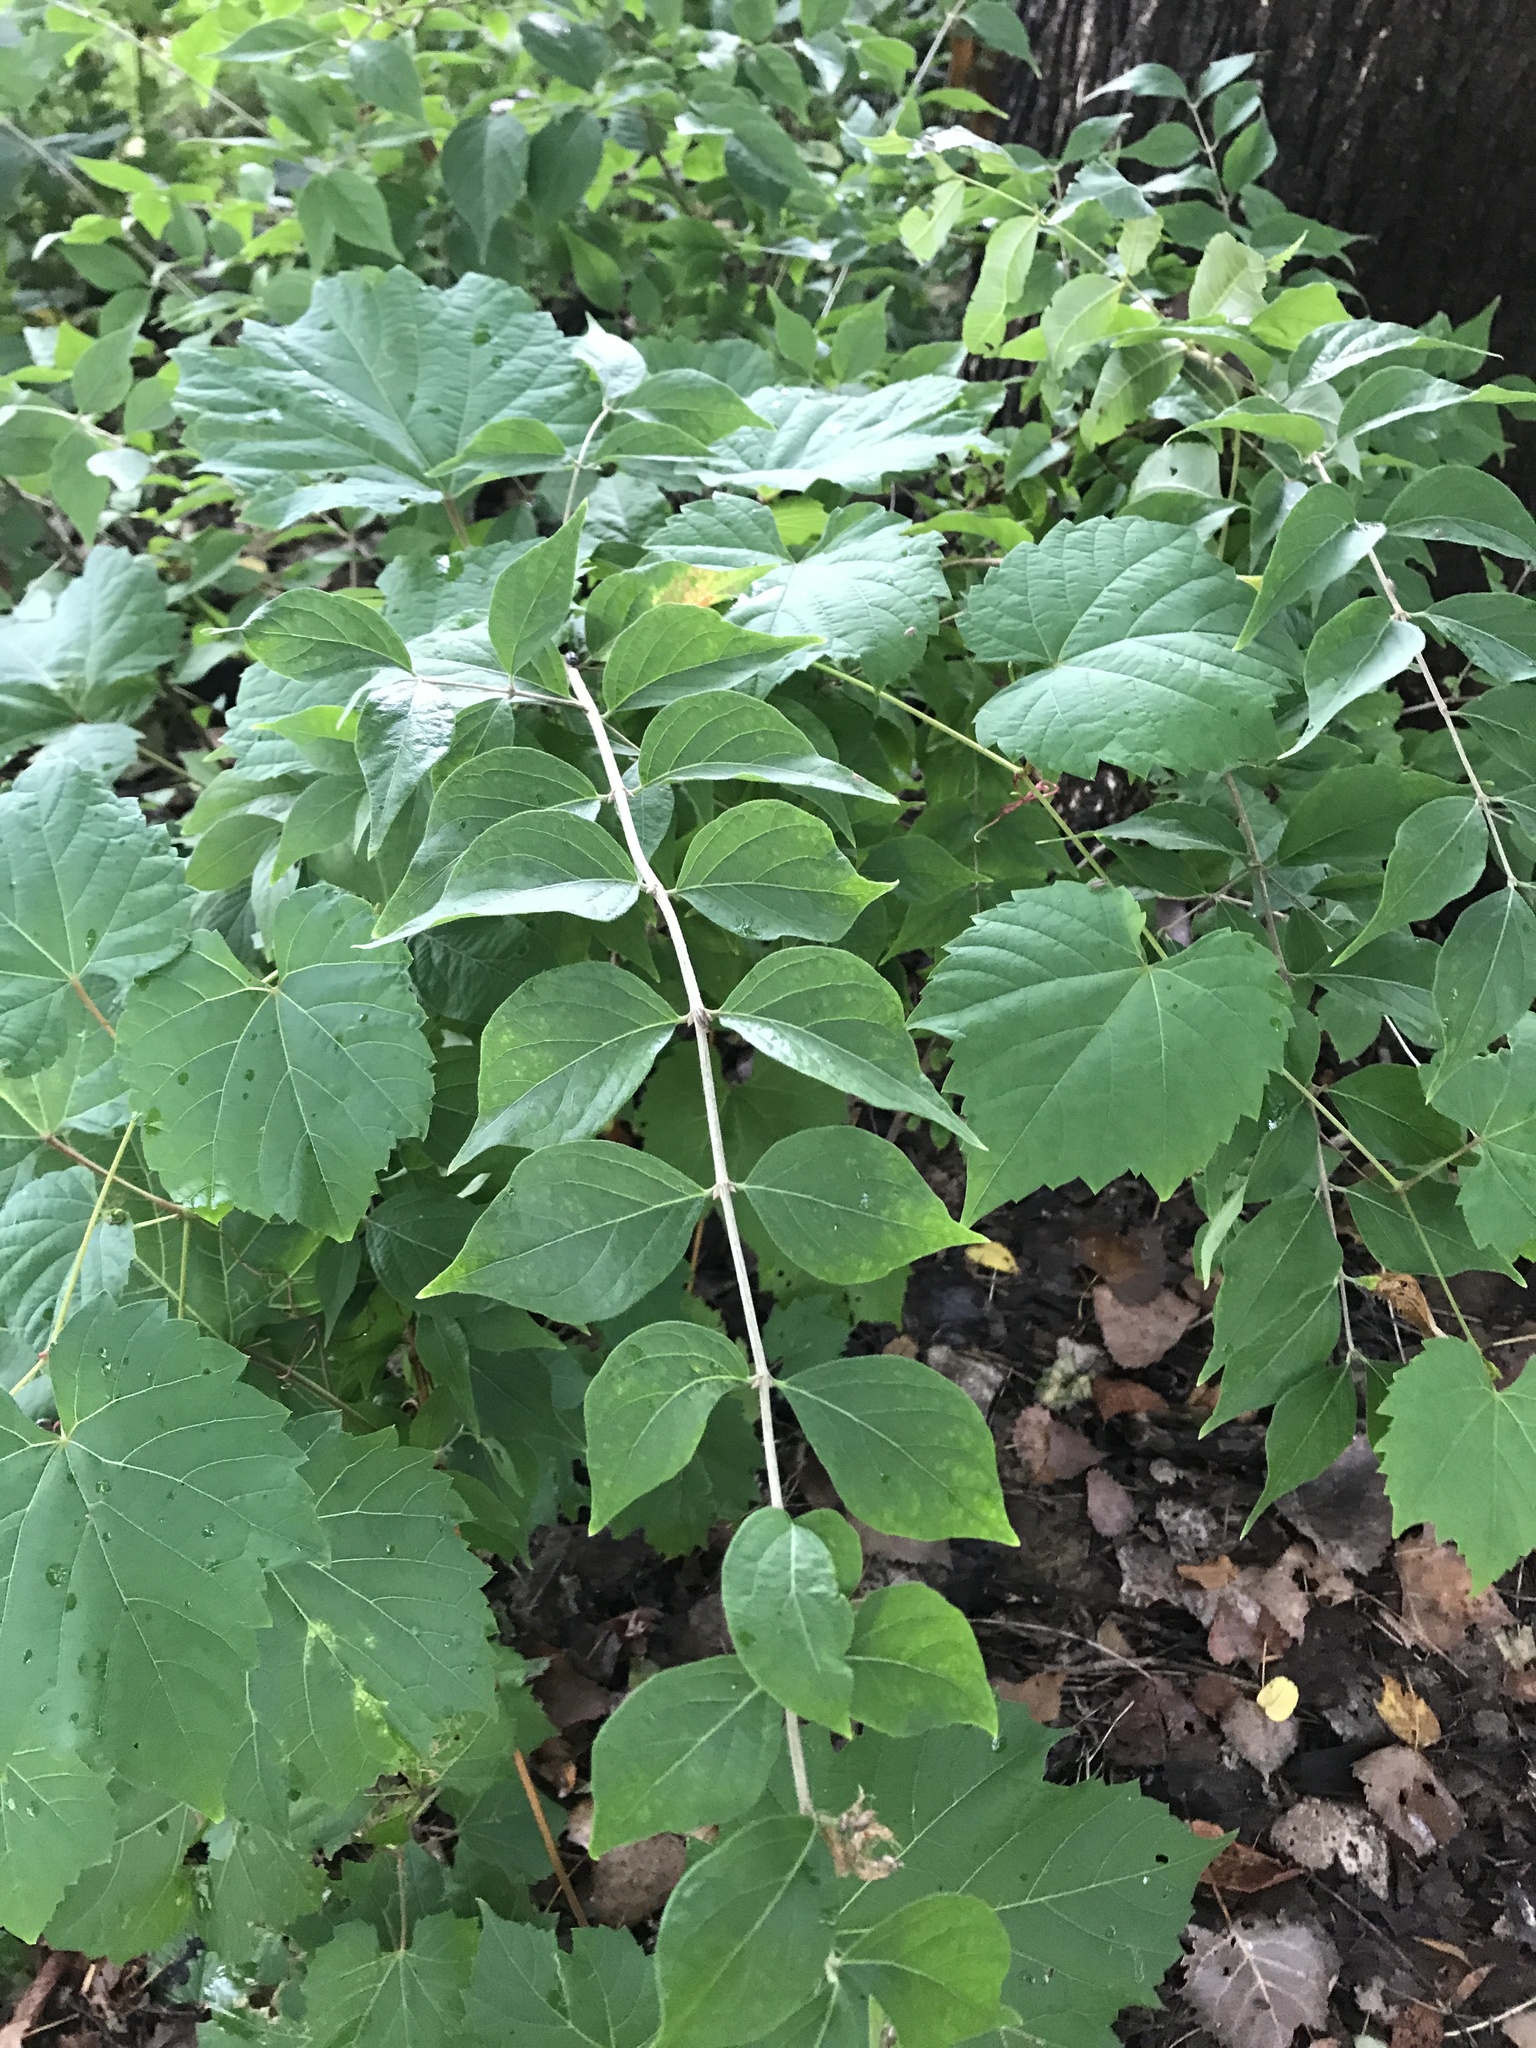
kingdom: Plantae
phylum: Tracheophyta
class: Magnoliopsida
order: Dipsacales
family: Caprifoliaceae
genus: Lonicera
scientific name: Lonicera maackii
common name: Amur honeysuckle
